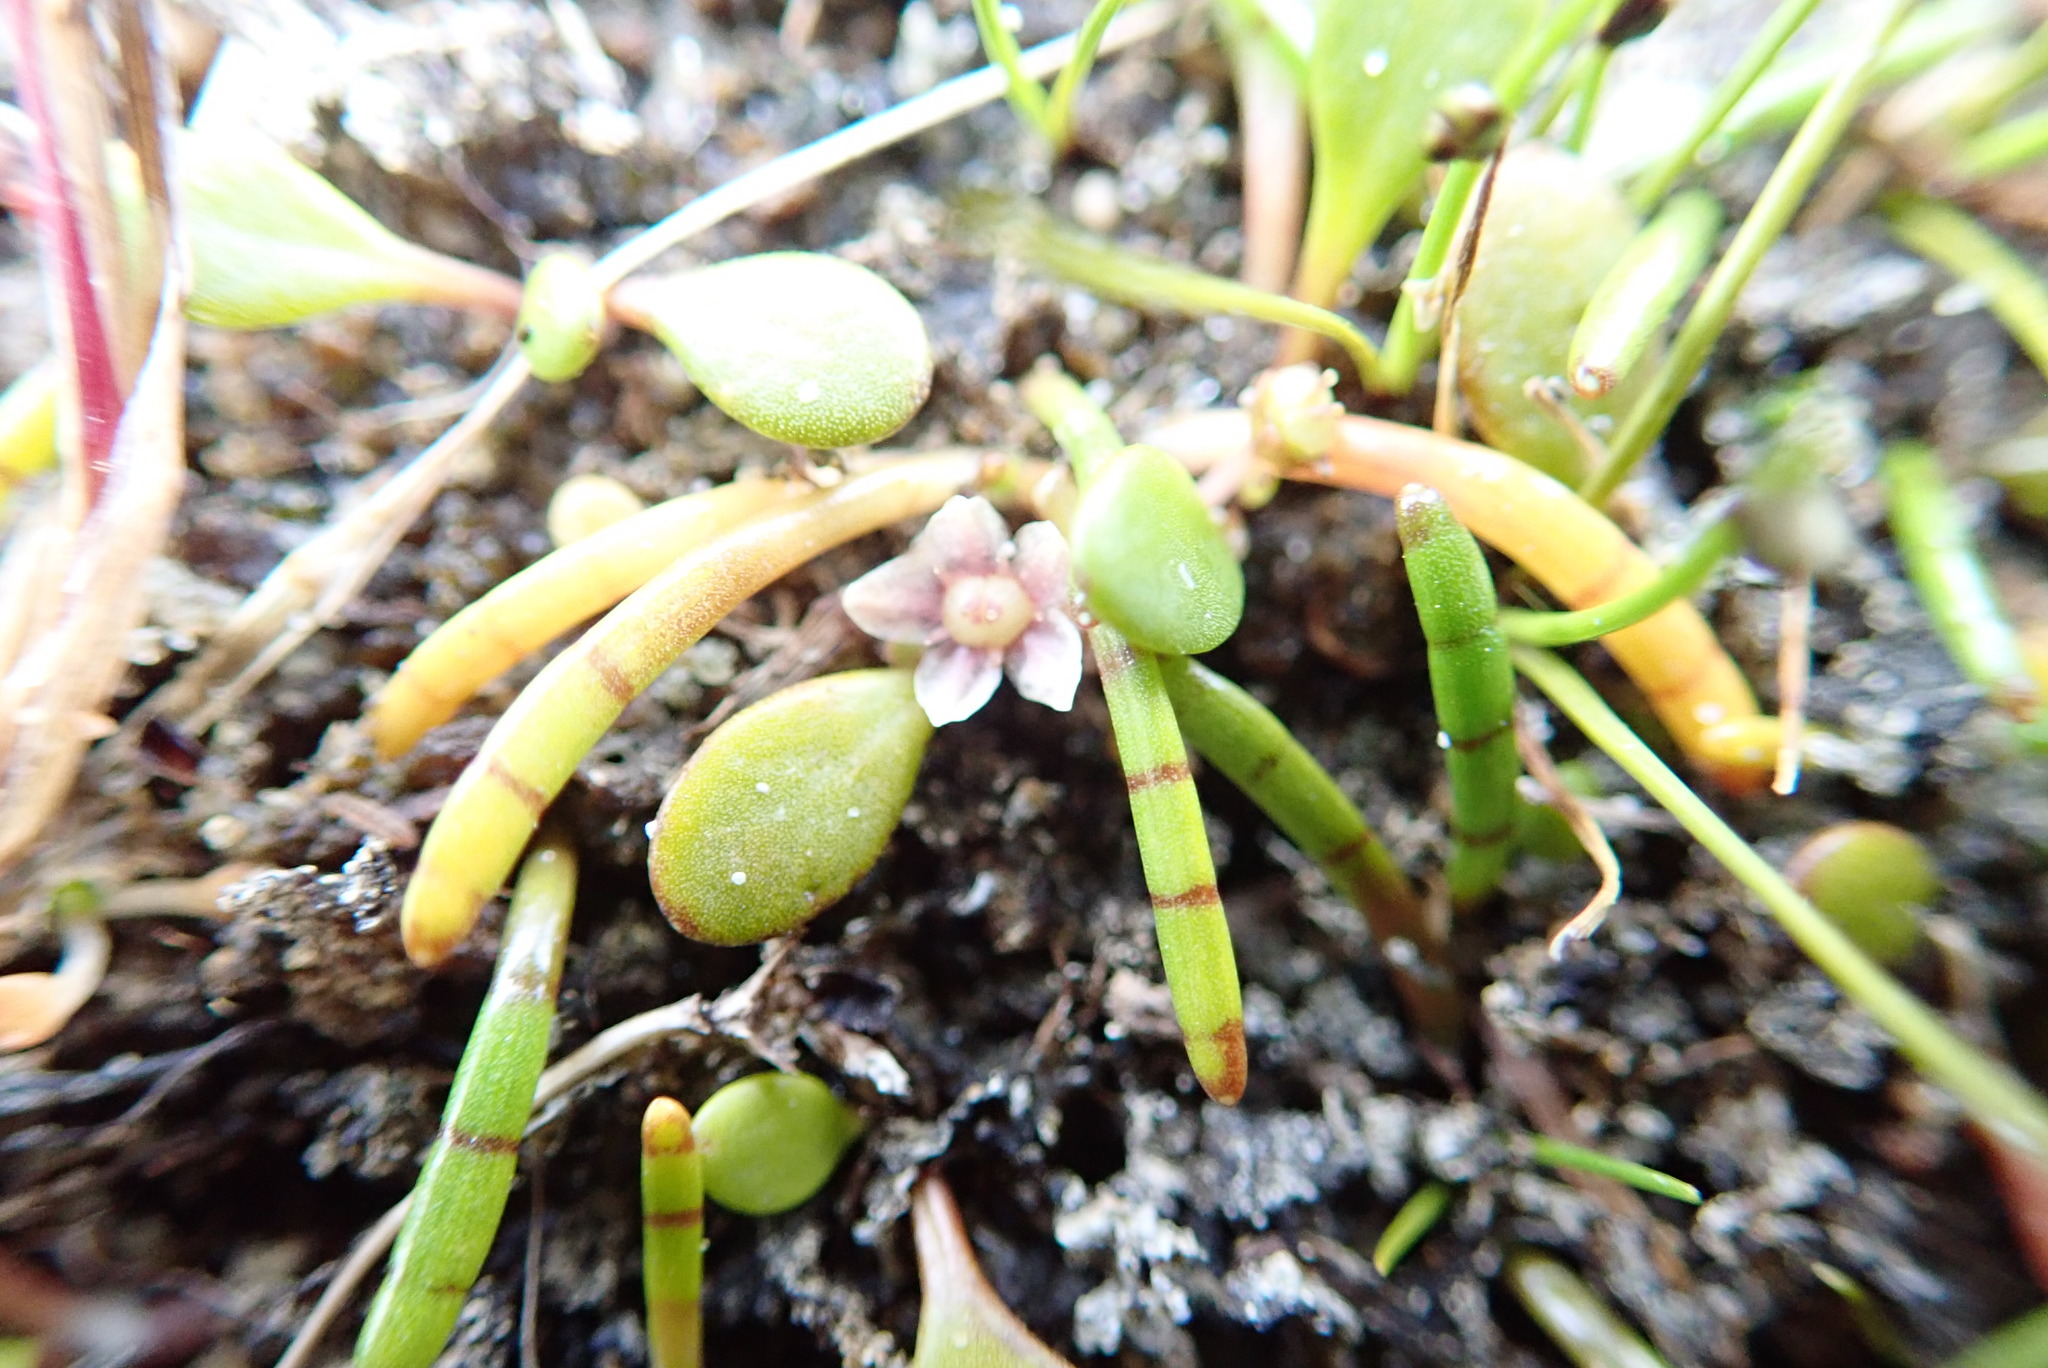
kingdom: Plantae
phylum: Tracheophyta
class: Magnoliopsida
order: Apiales
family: Apiaceae
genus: Lilaeopsis
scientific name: Lilaeopsis novae-zelandiae
